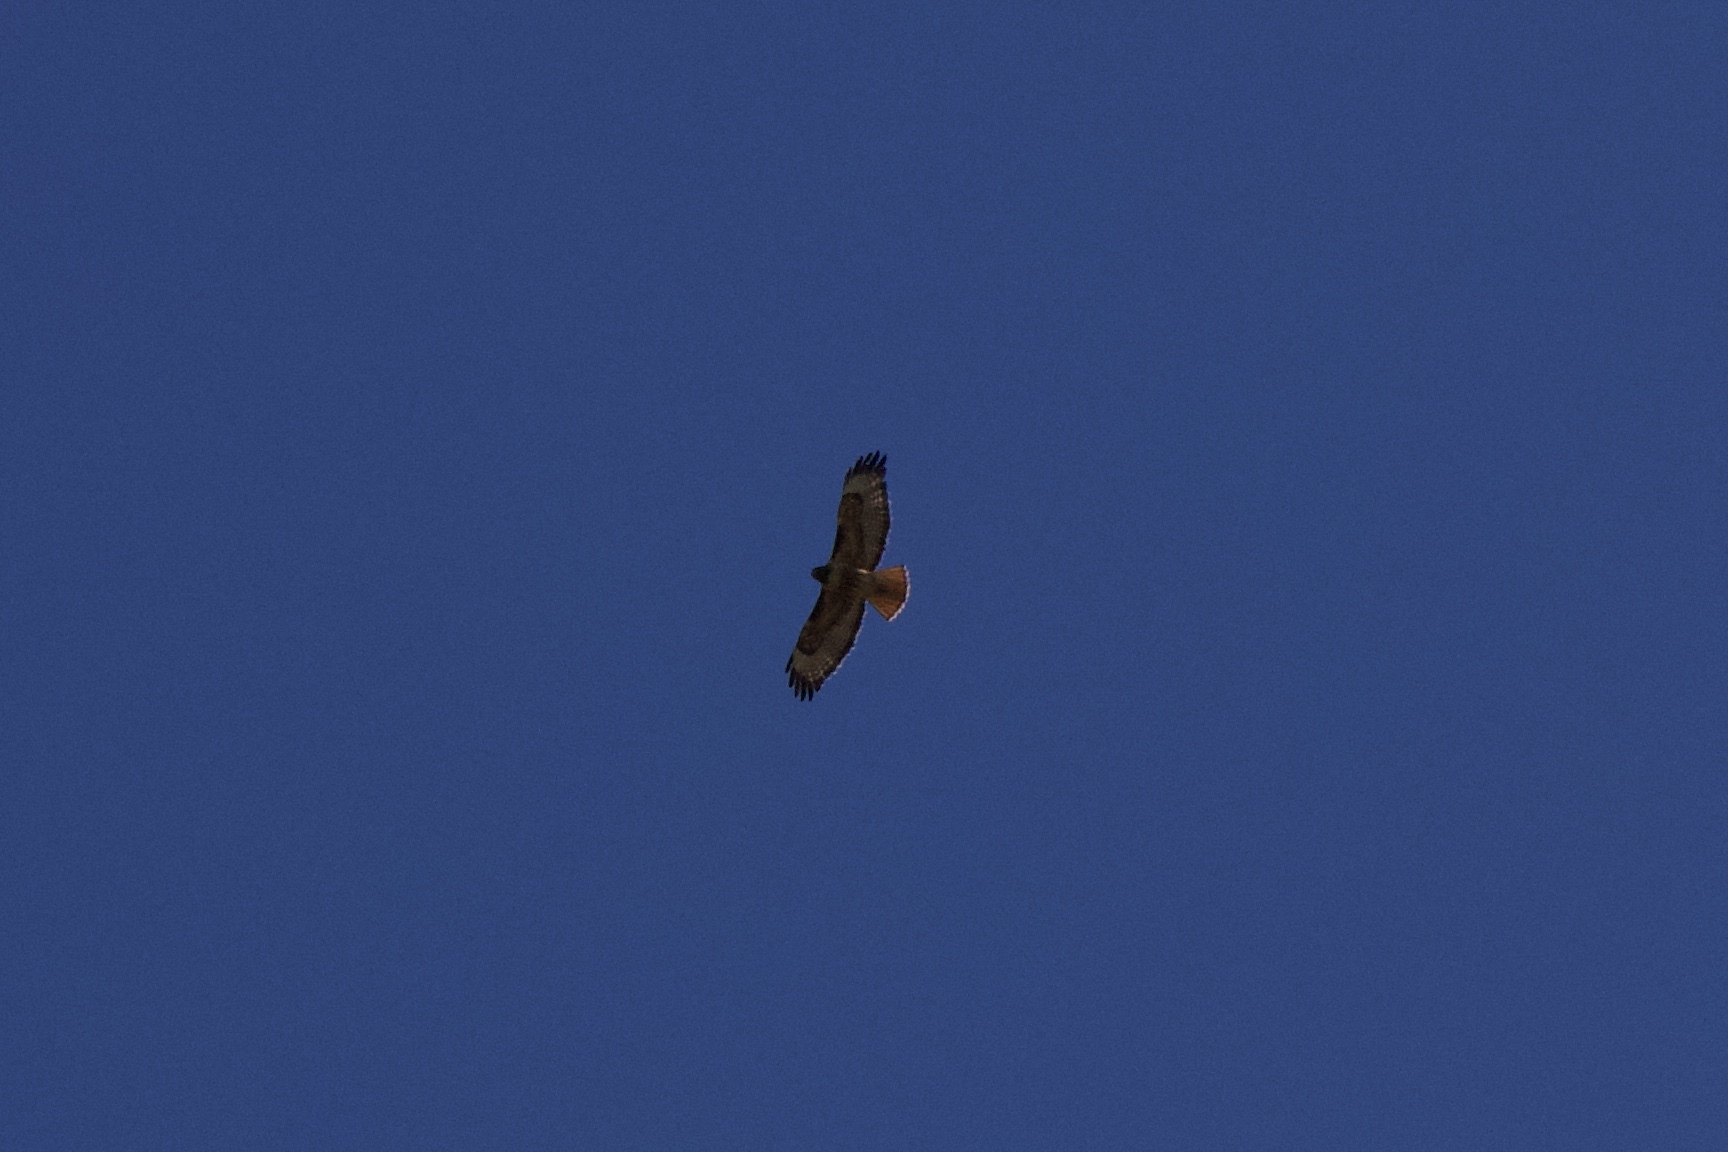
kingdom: Animalia
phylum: Chordata
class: Aves
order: Accipitriformes
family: Accipitridae
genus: Buteo
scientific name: Buteo jamaicensis
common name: Red-tailed hawk
